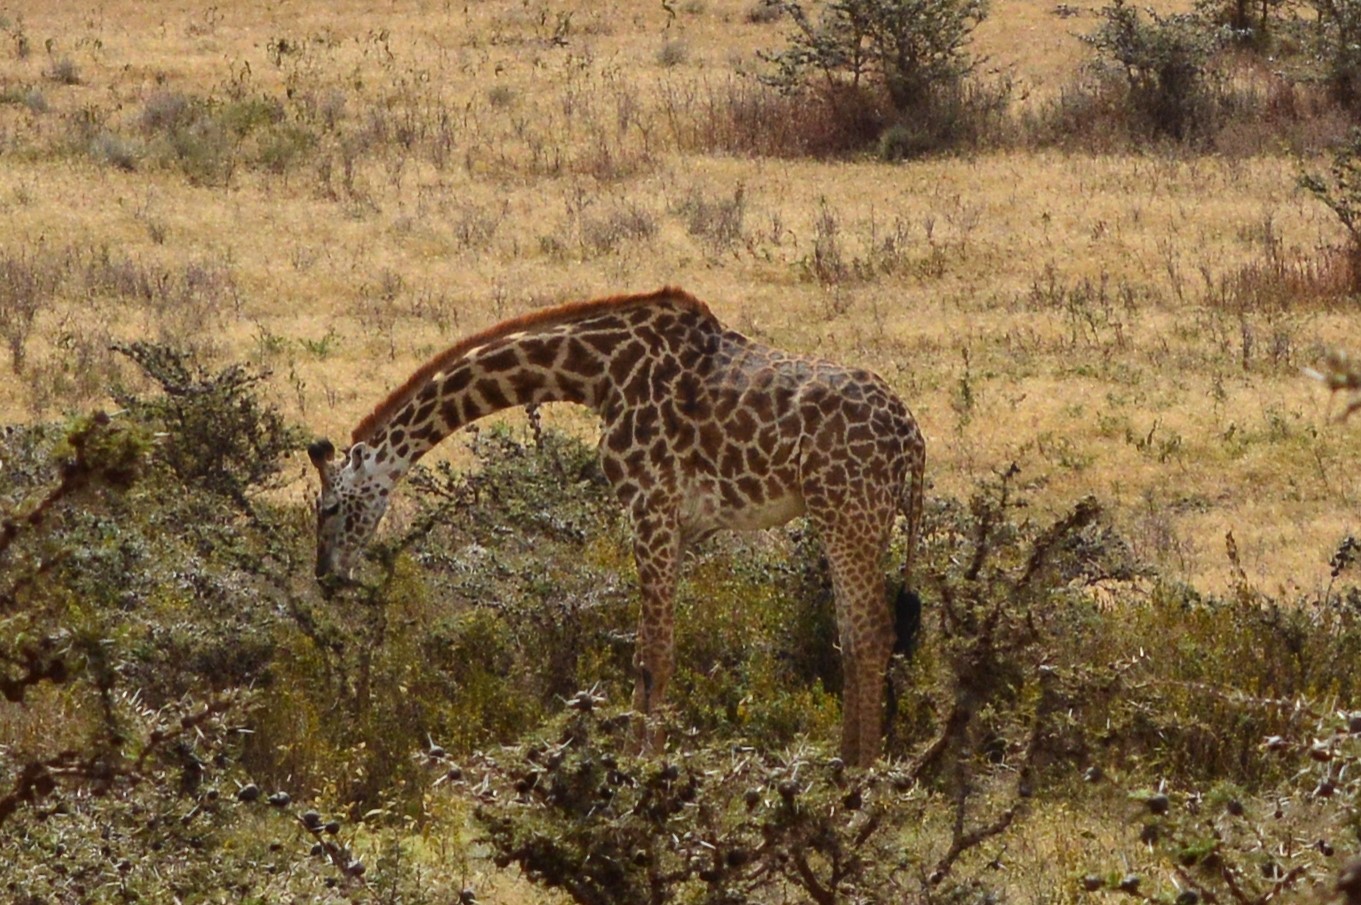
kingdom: Animalia
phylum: Chordata
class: Mammalia
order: Artiodactyla
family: Giraffidae
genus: Giraffa
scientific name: Giraffa tippelskirchi
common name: Masai giraffe
